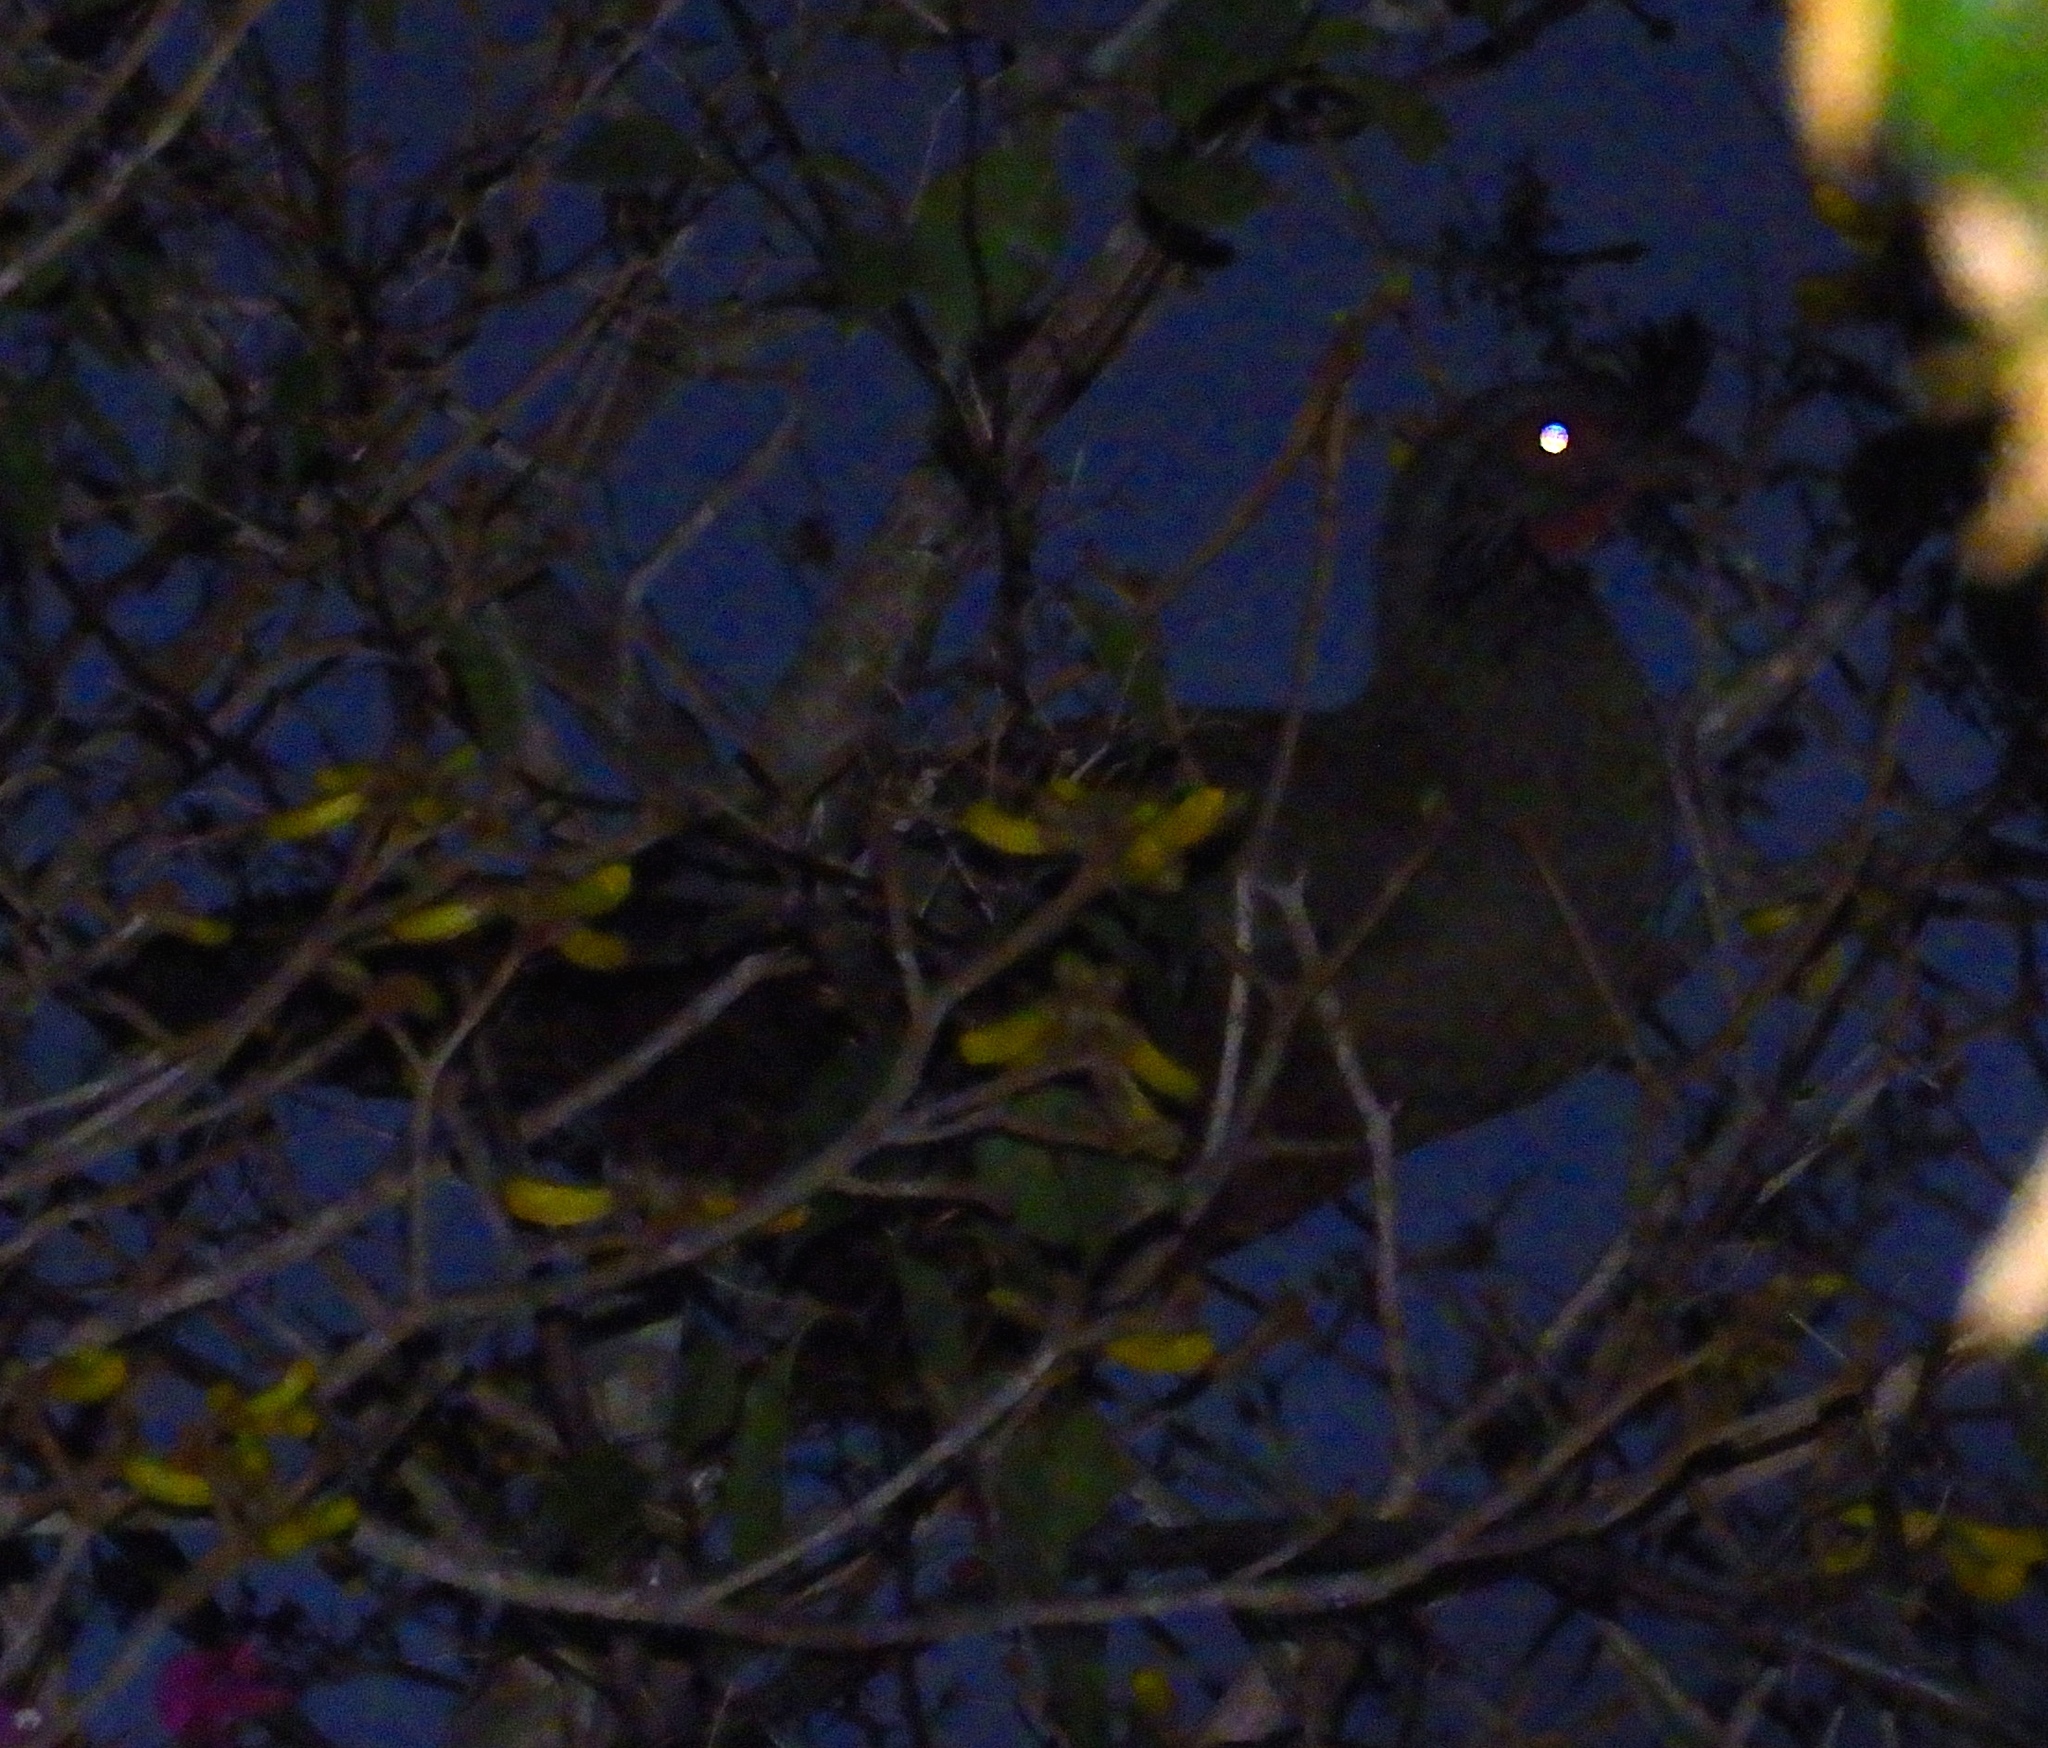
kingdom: Animalia
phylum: Chordata
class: Aves
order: Galliformes
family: Cracidae
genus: Ortalis
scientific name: Ortalis wagleri
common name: Rufous-bellied chachalaca
